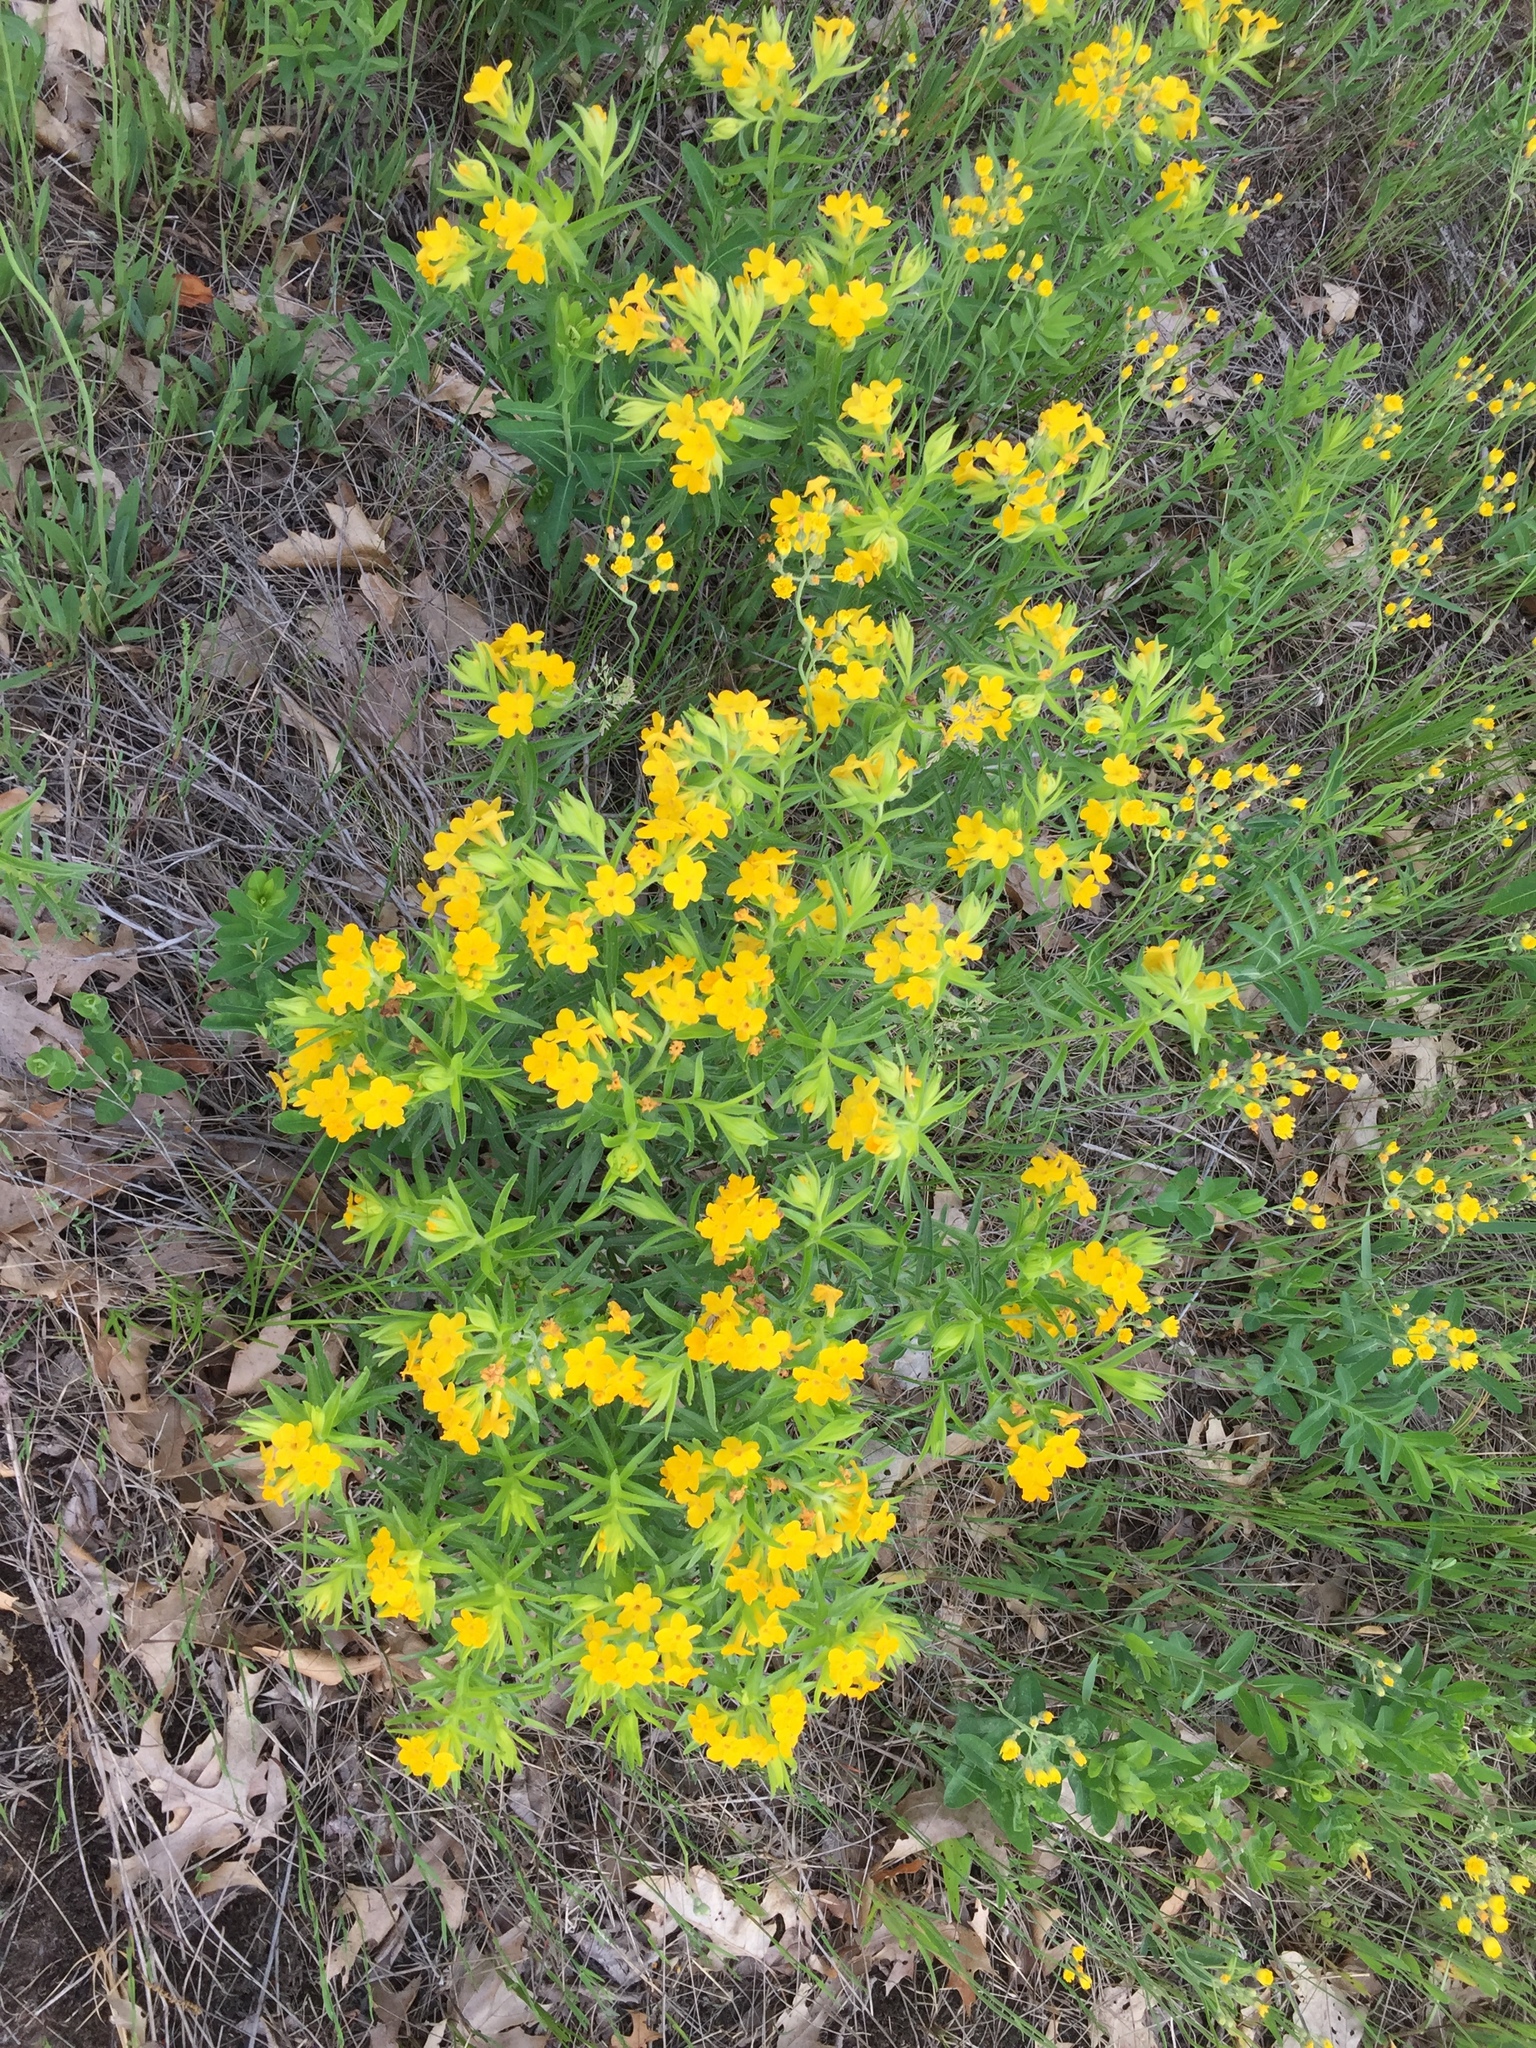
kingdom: Plantae
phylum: Tracheophyta
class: Magnoliopsida
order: Boraginales
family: Boraginaceae
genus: Lithospermum
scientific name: Lithospermum caroliniense
